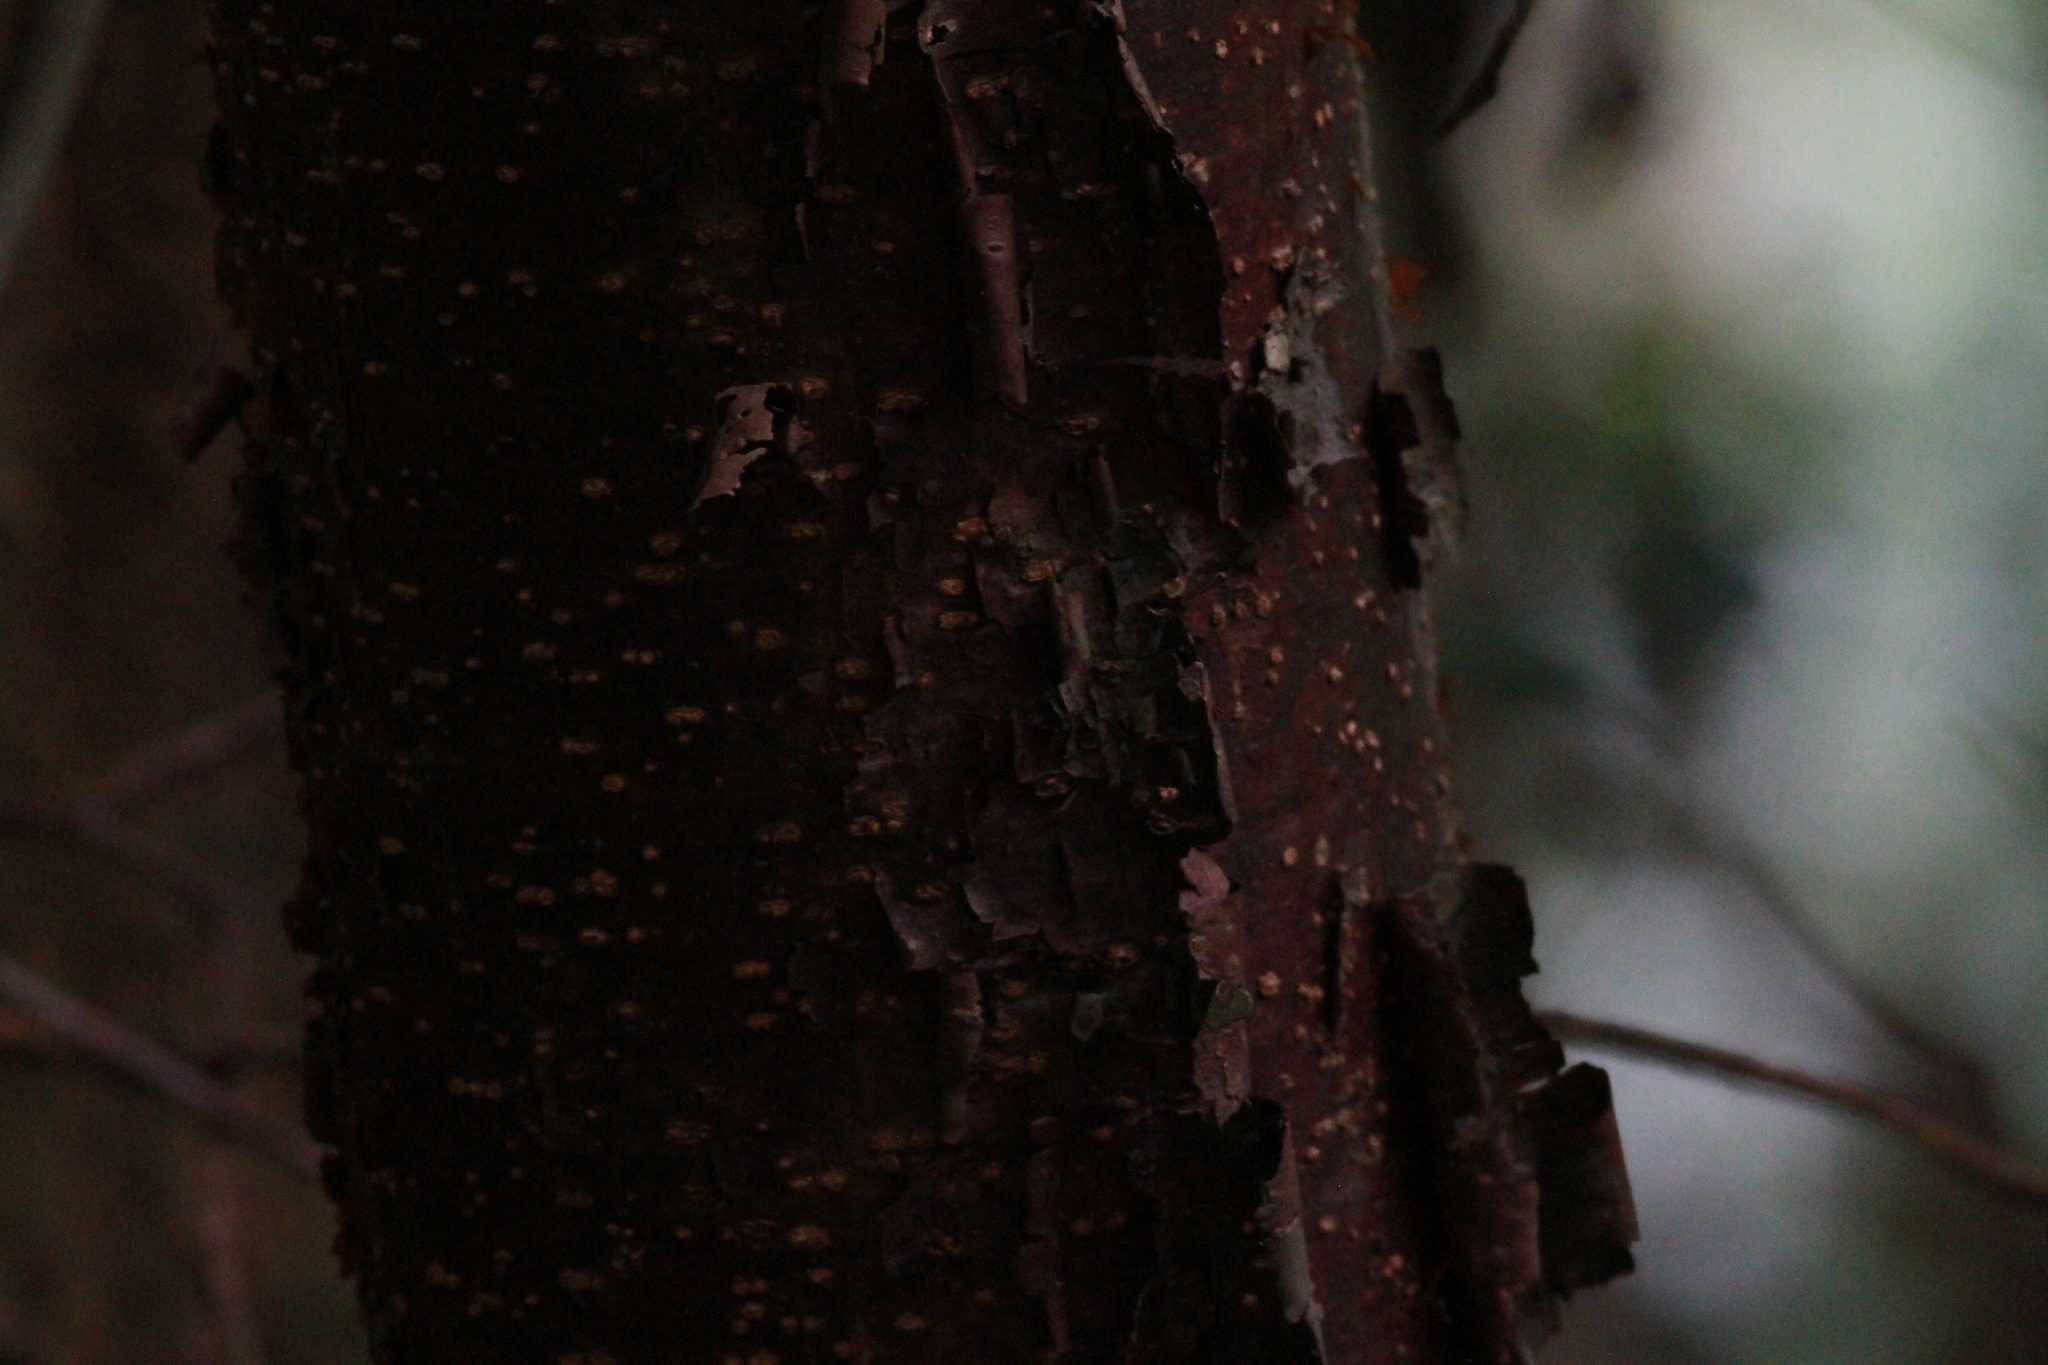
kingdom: Plantae
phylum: Tracheophyta
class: Magnoliopsida
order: Sapindales
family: Burseraceae
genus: Bursera
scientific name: Bursera simaruba
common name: Turpentine tree
